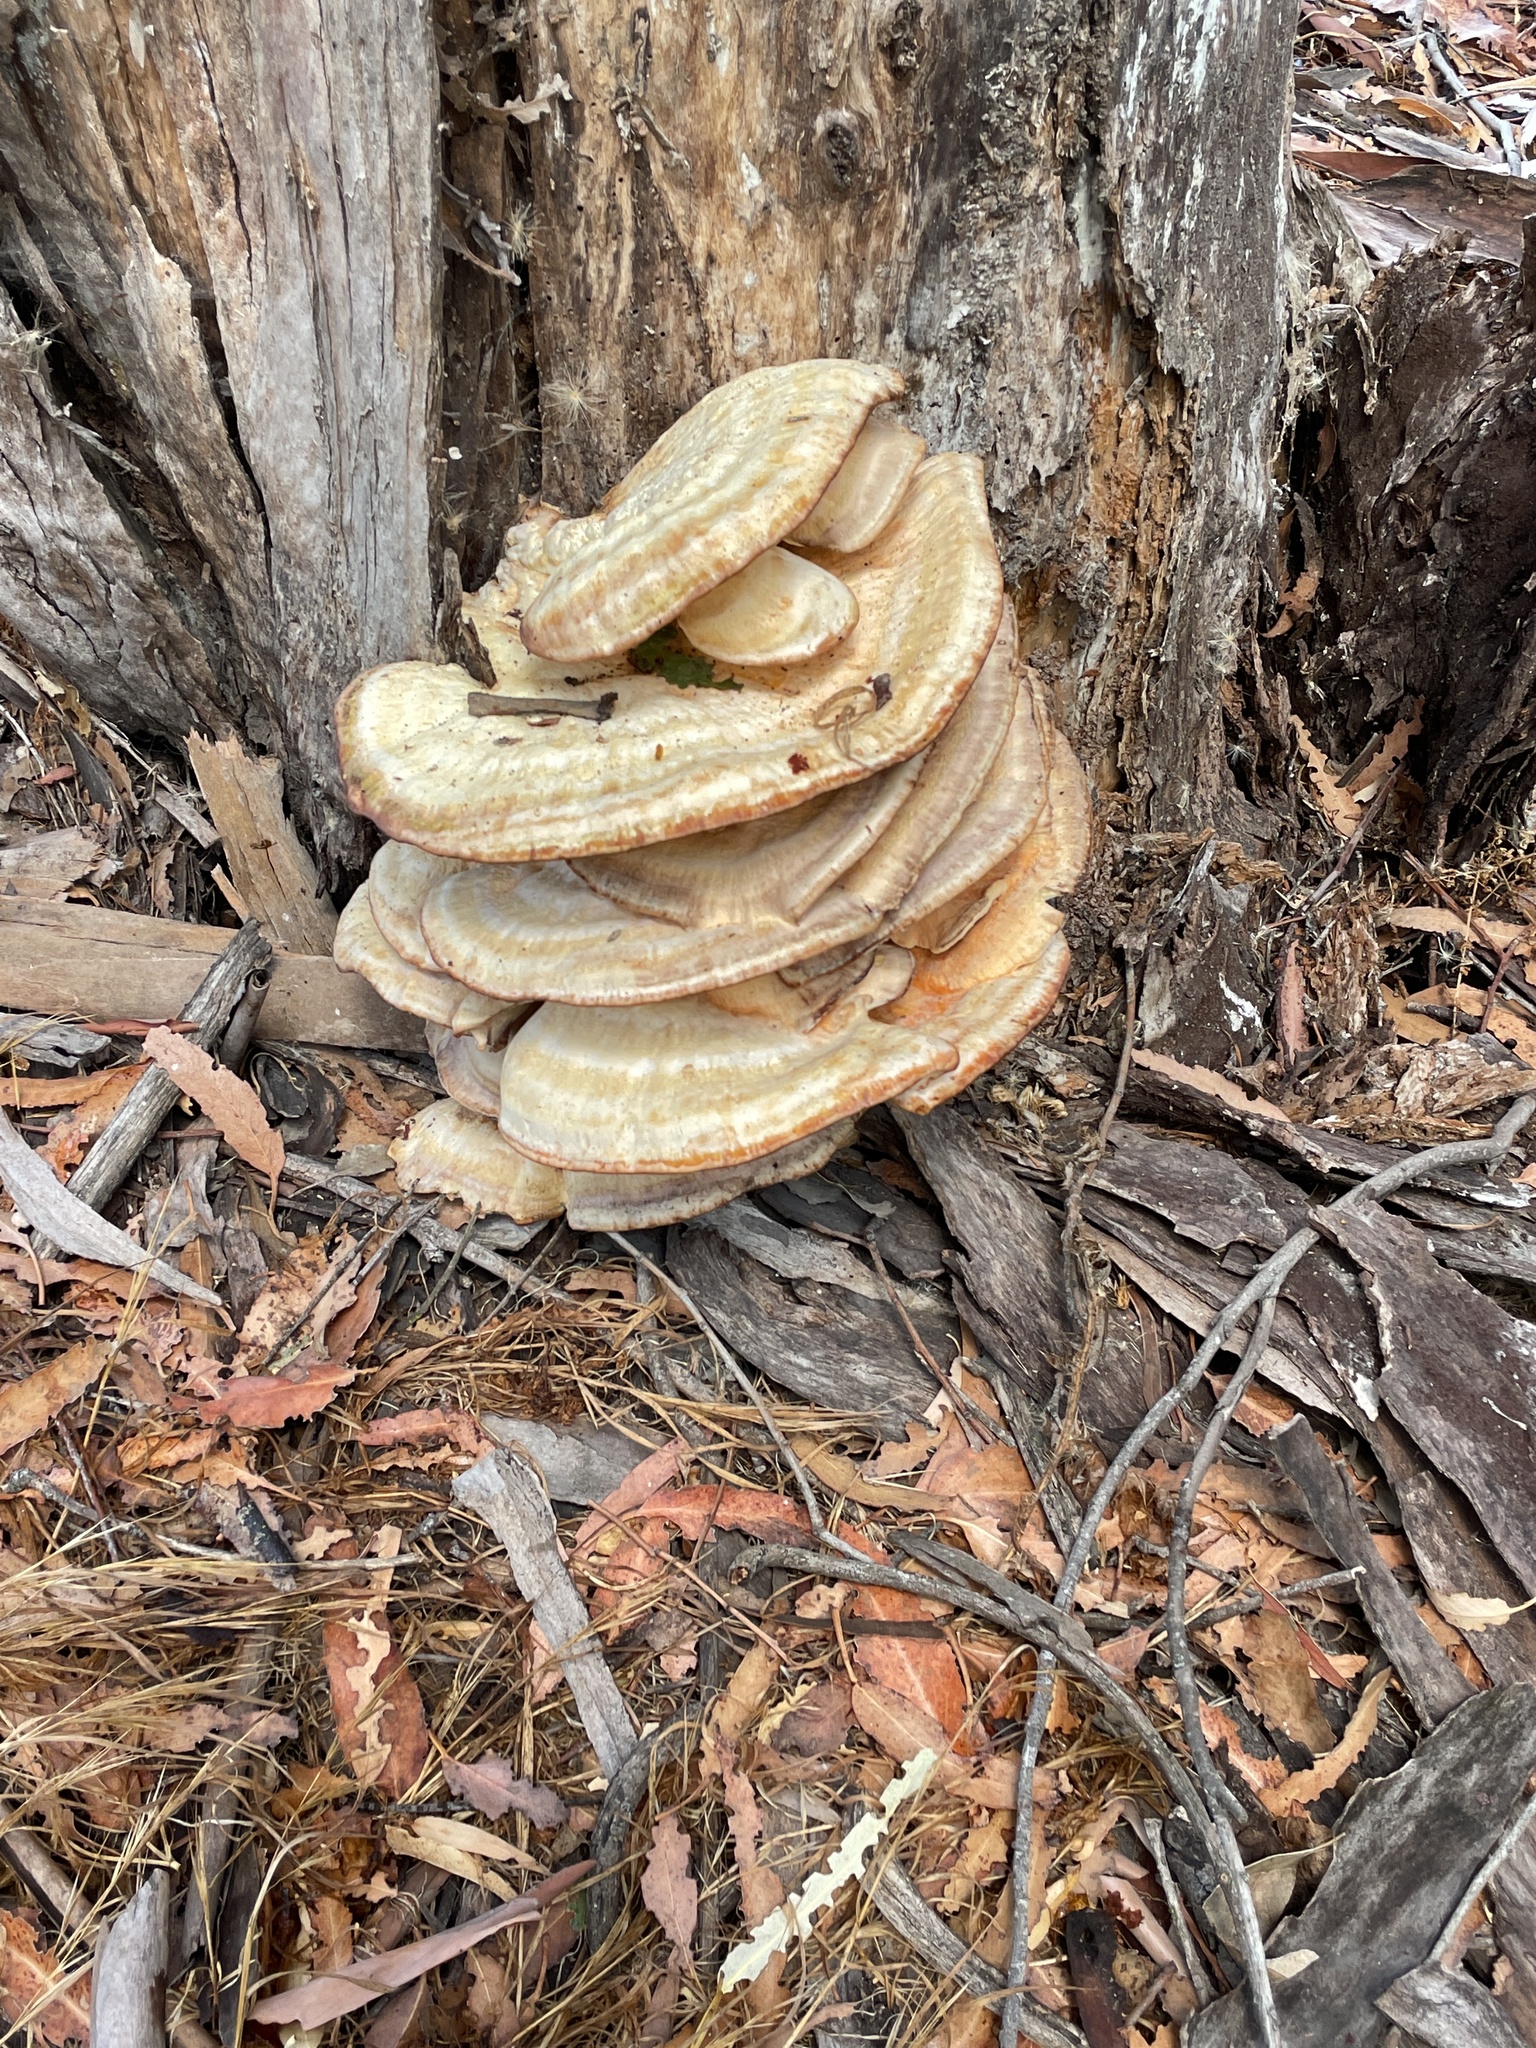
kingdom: Fungi
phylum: Basidiomycota
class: Agaricomycetes
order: Polyporales
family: Laetiporaceae
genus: Laetiporus
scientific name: Laetiporus gilbertsonii
